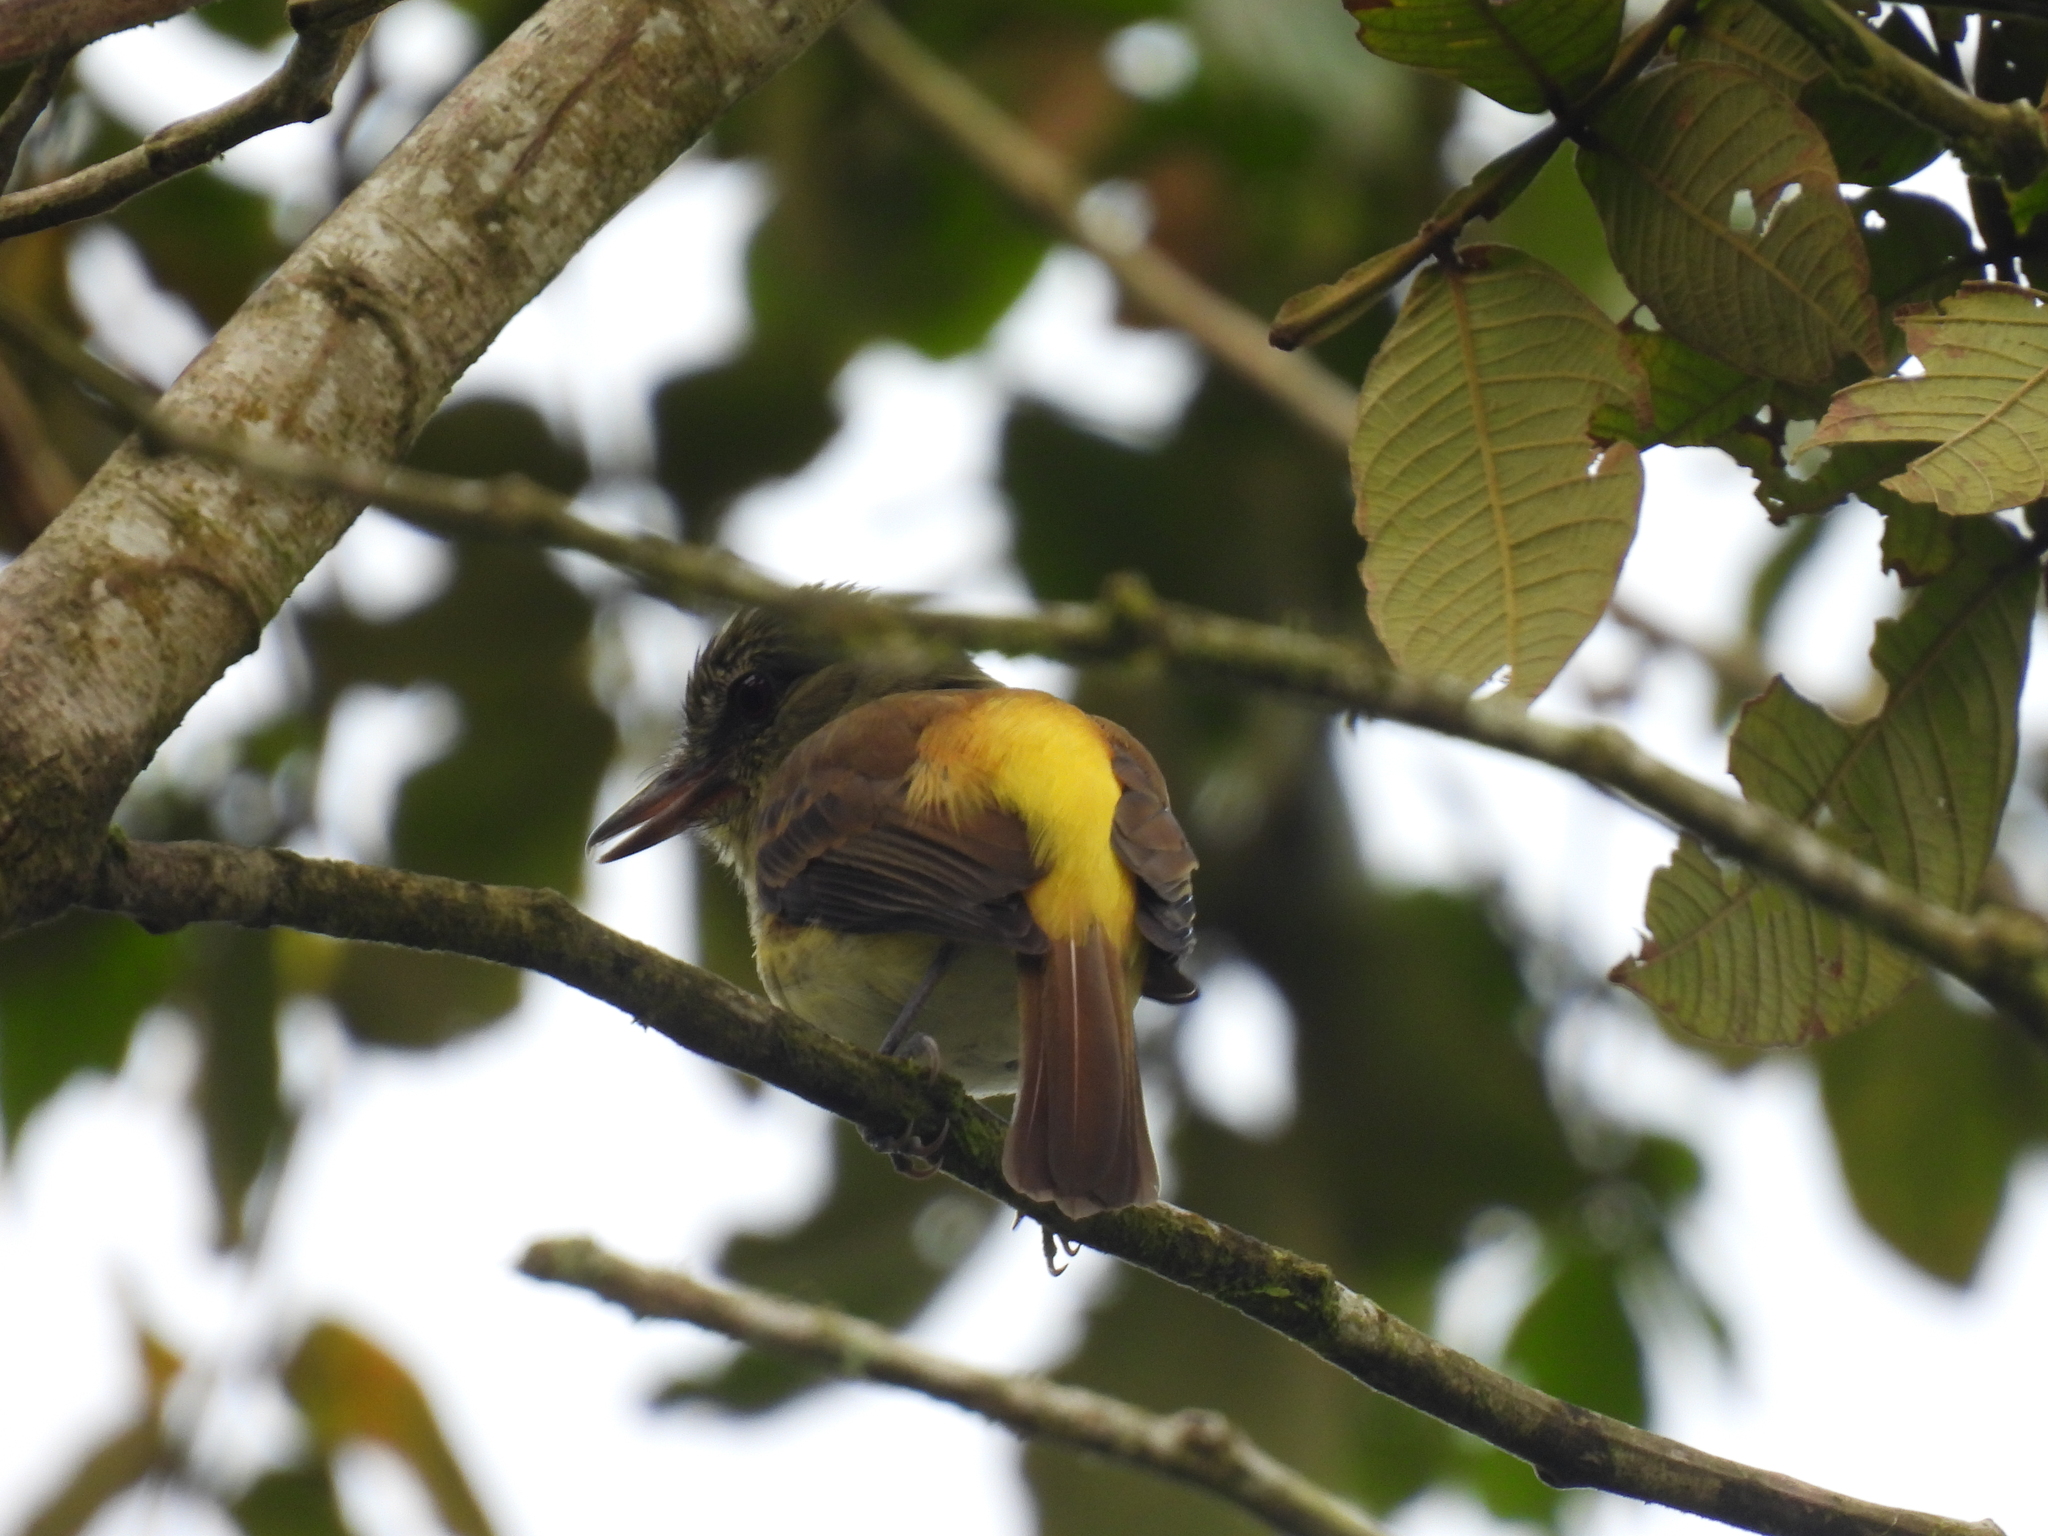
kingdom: Animalia
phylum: Chordata
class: Aves
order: Passeriformes
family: Tyrannidae
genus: Attila
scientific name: Attila spadiceus
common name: Bright-rumped attila
